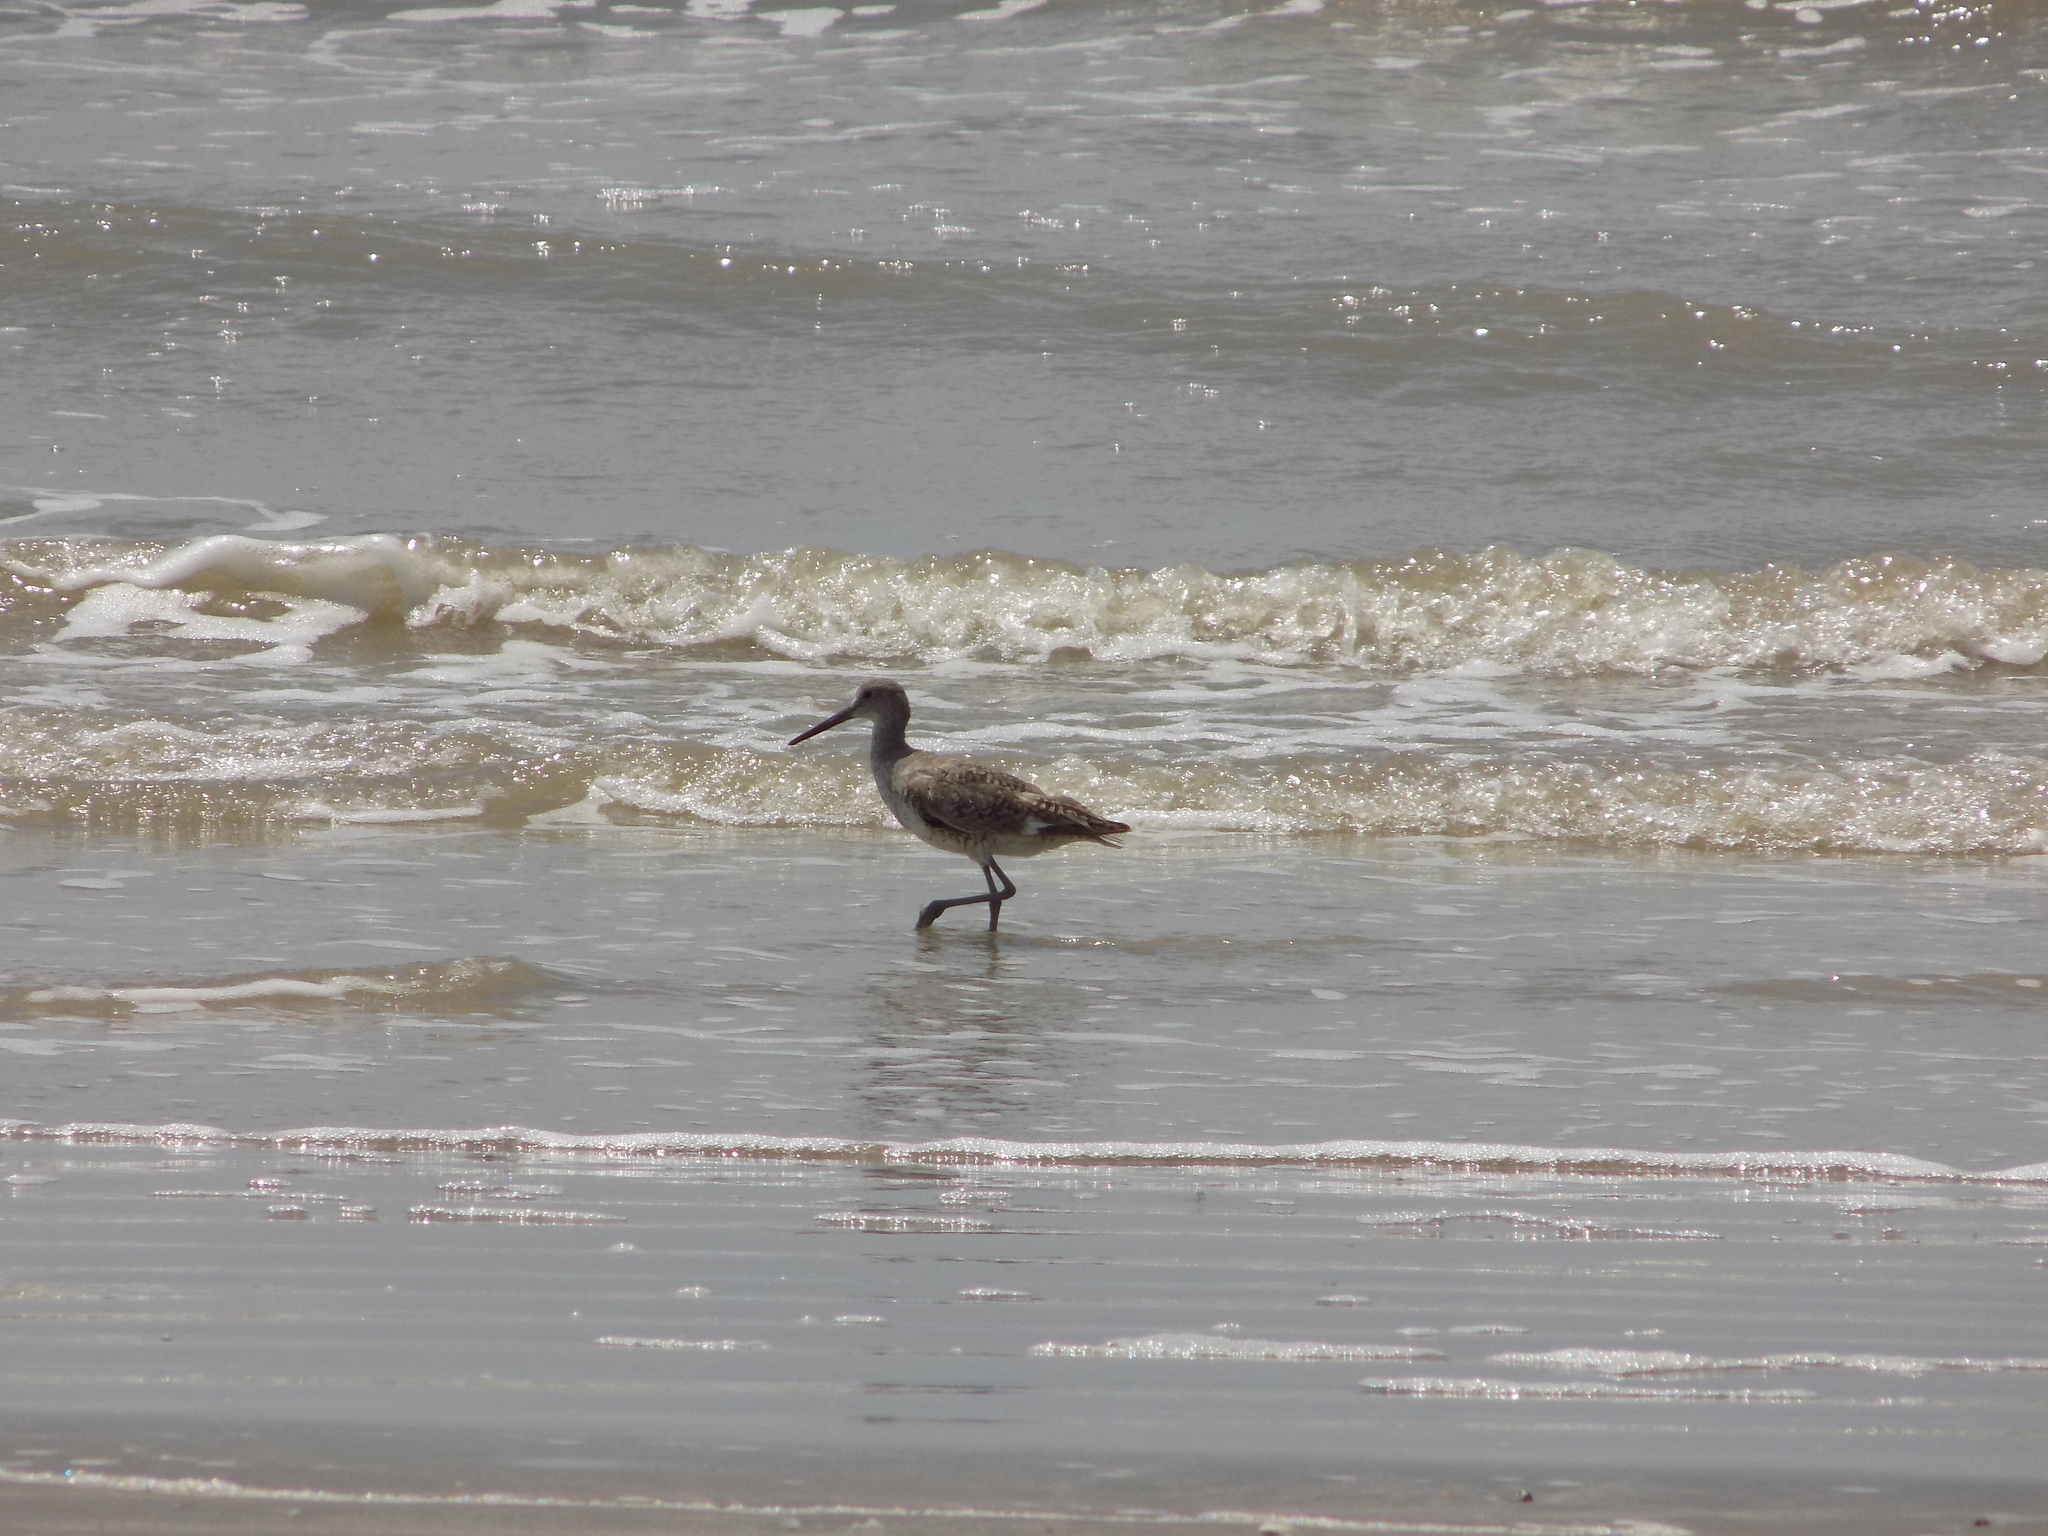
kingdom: Animalia
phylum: Chordata
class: Aves
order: Charadriiformes
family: Scolopacidae
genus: Tringa
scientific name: Tringa semipalmata
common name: Willet
